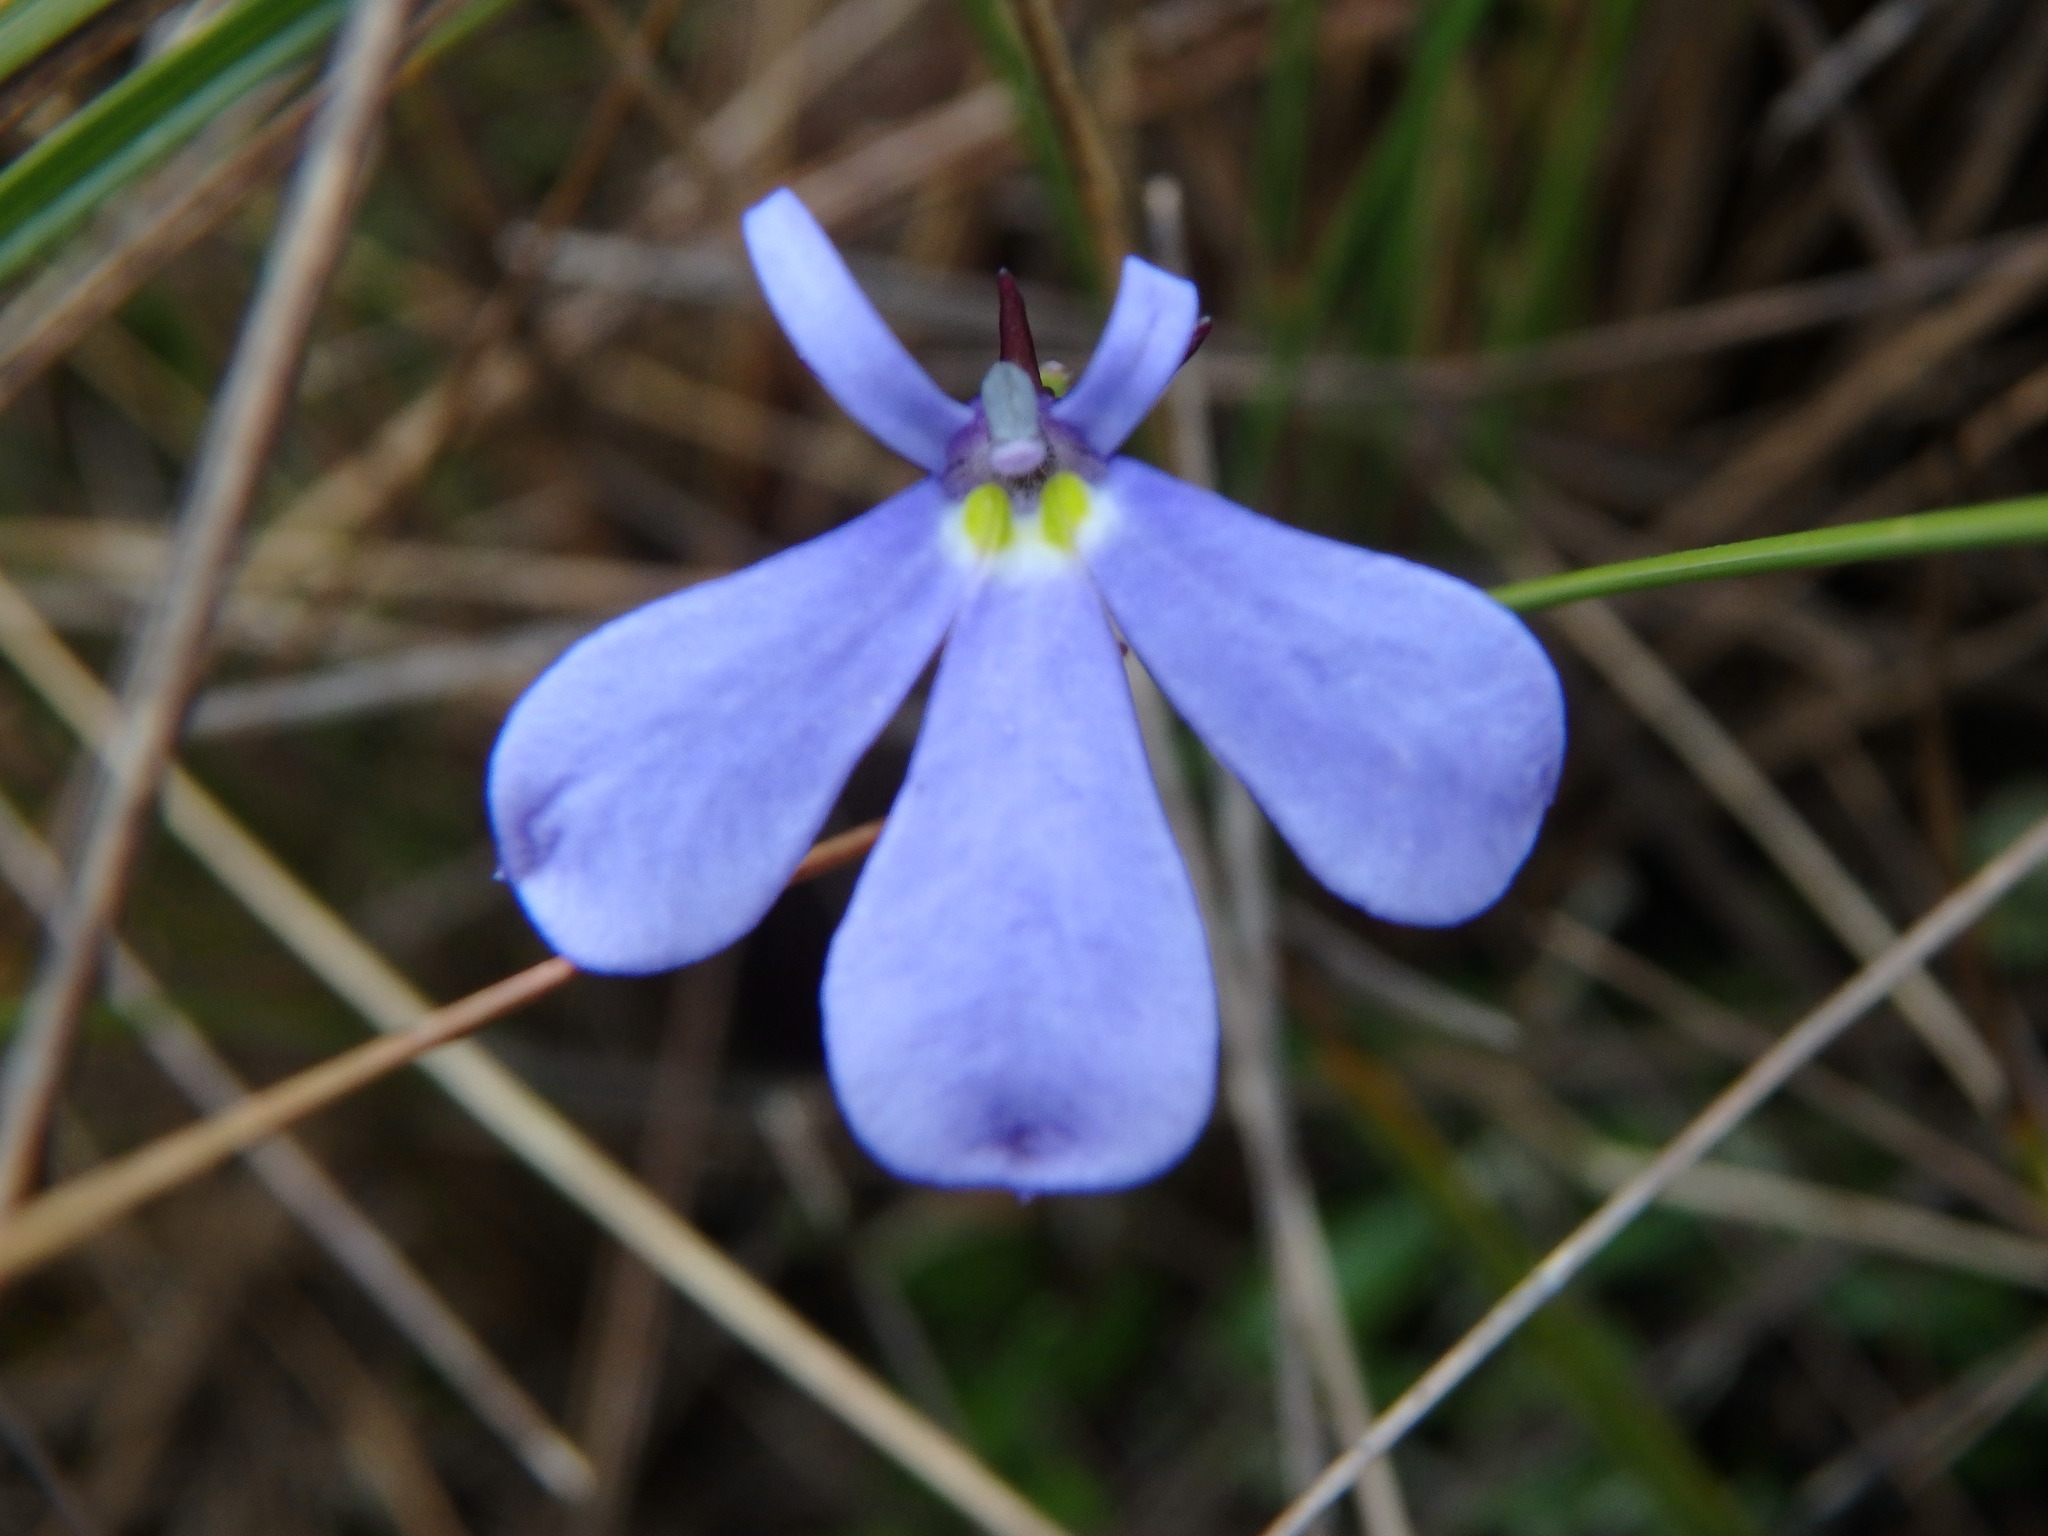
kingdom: Plantae
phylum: Tracheophyta
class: Magnoliopsida
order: Asterales
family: Campanulaceae
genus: Lobelia
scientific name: Lobelia tenera
